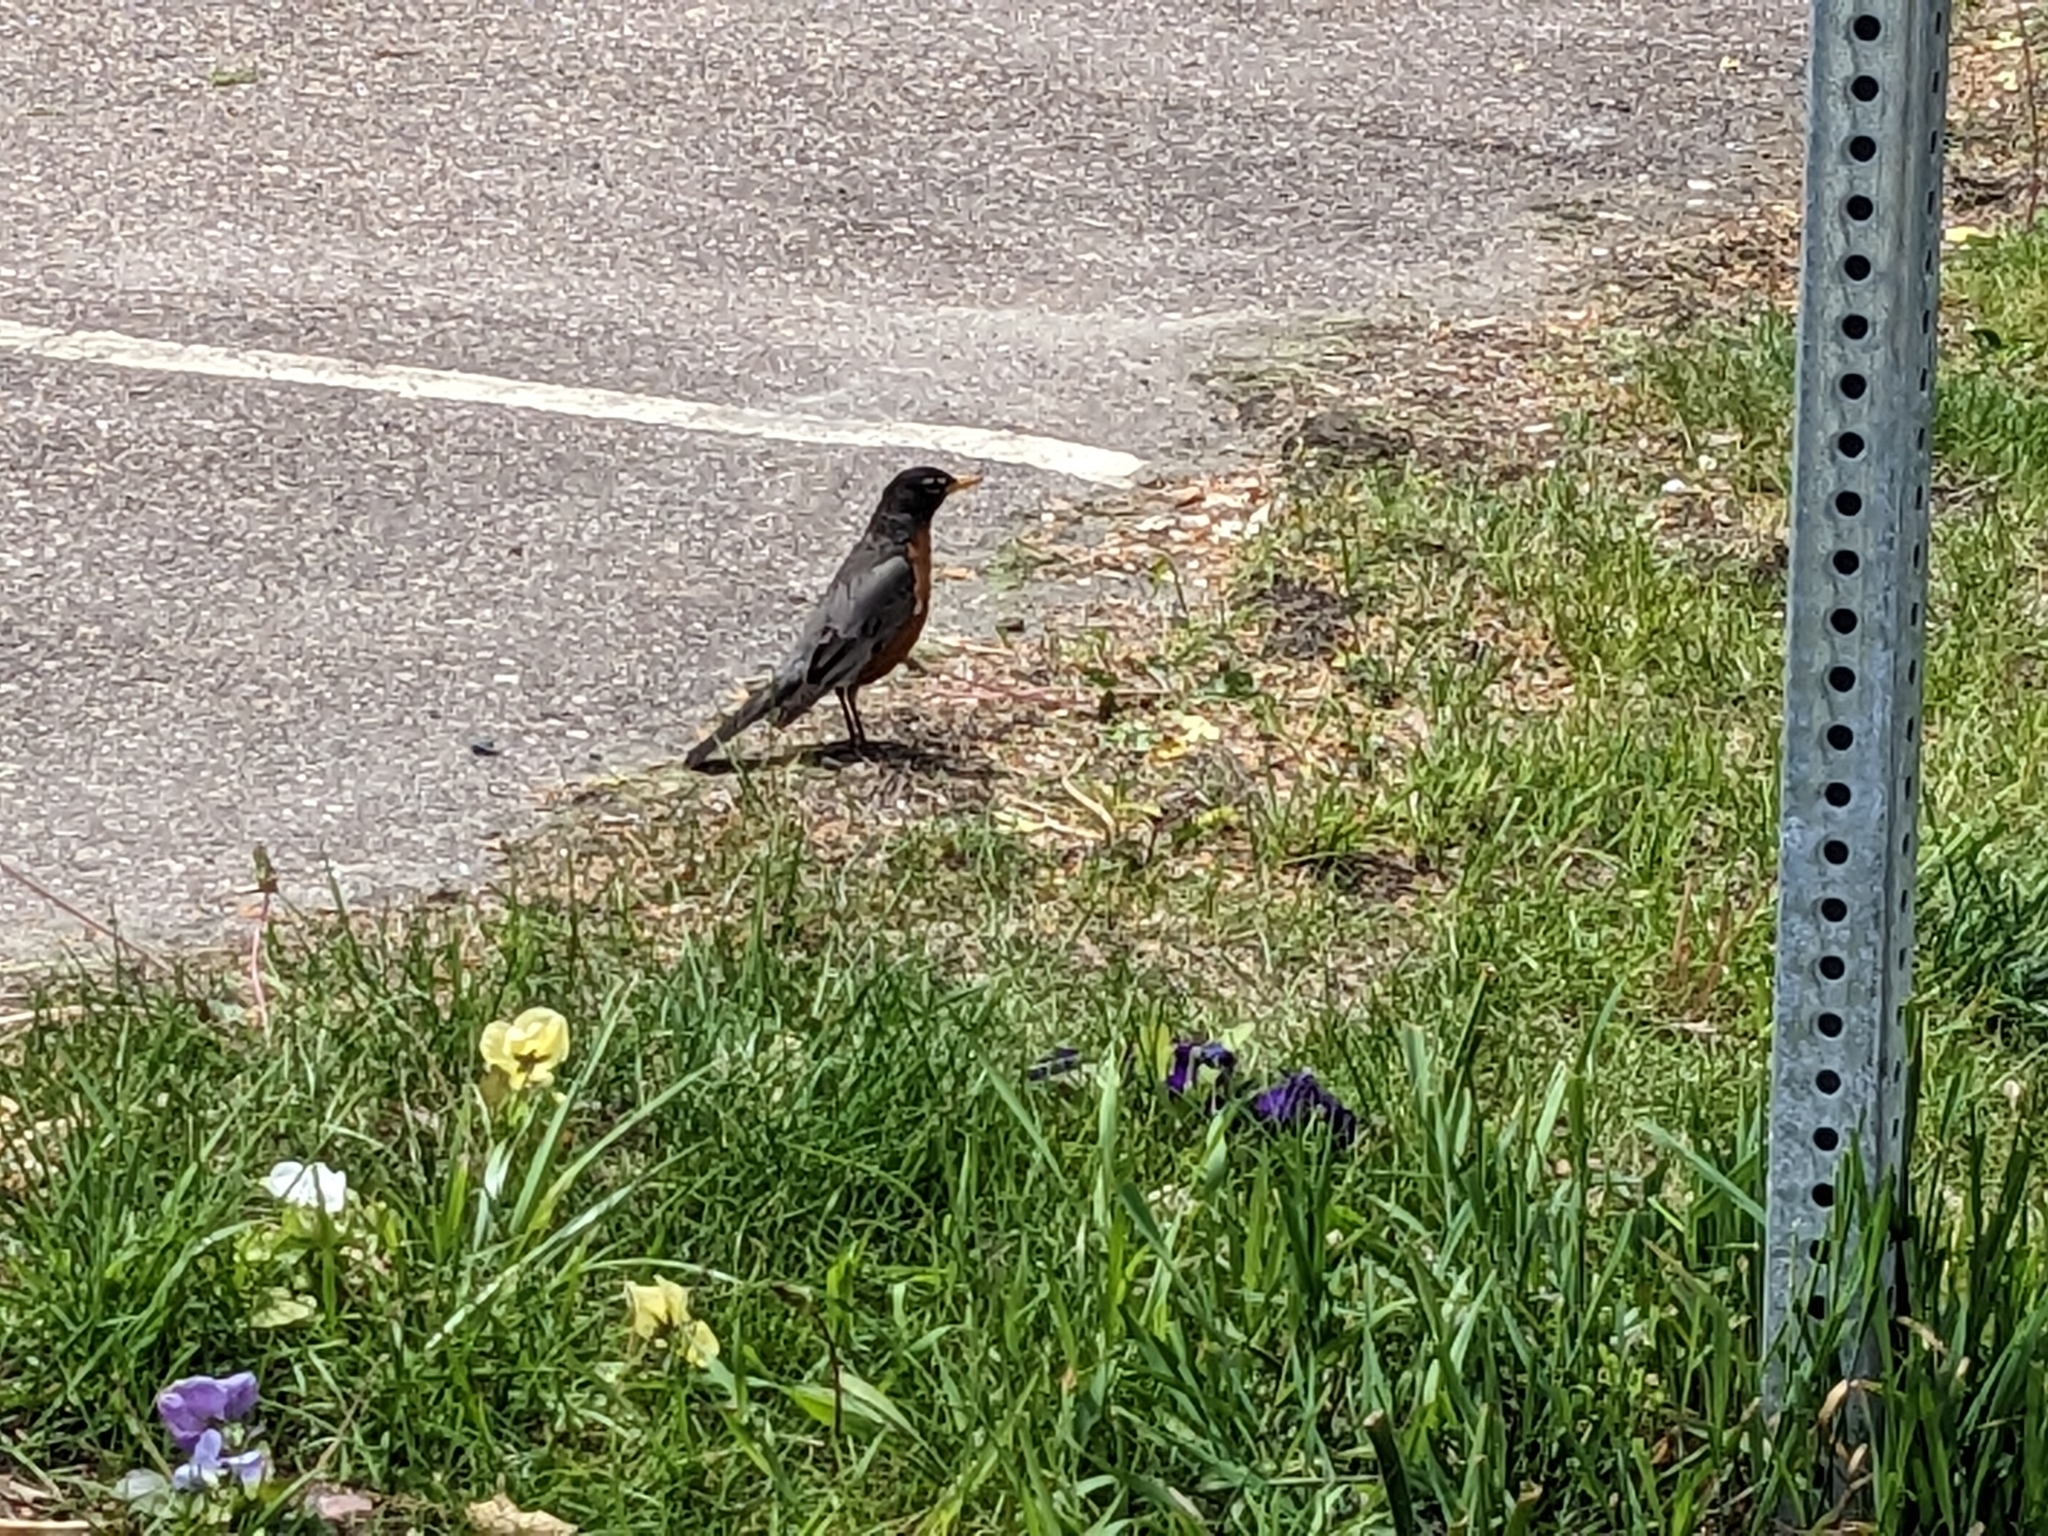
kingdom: Animalia
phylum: Chordata
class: Aves
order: Passeriformes
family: Turdidae
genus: Turdus
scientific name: Turdus migratorius
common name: American robin
